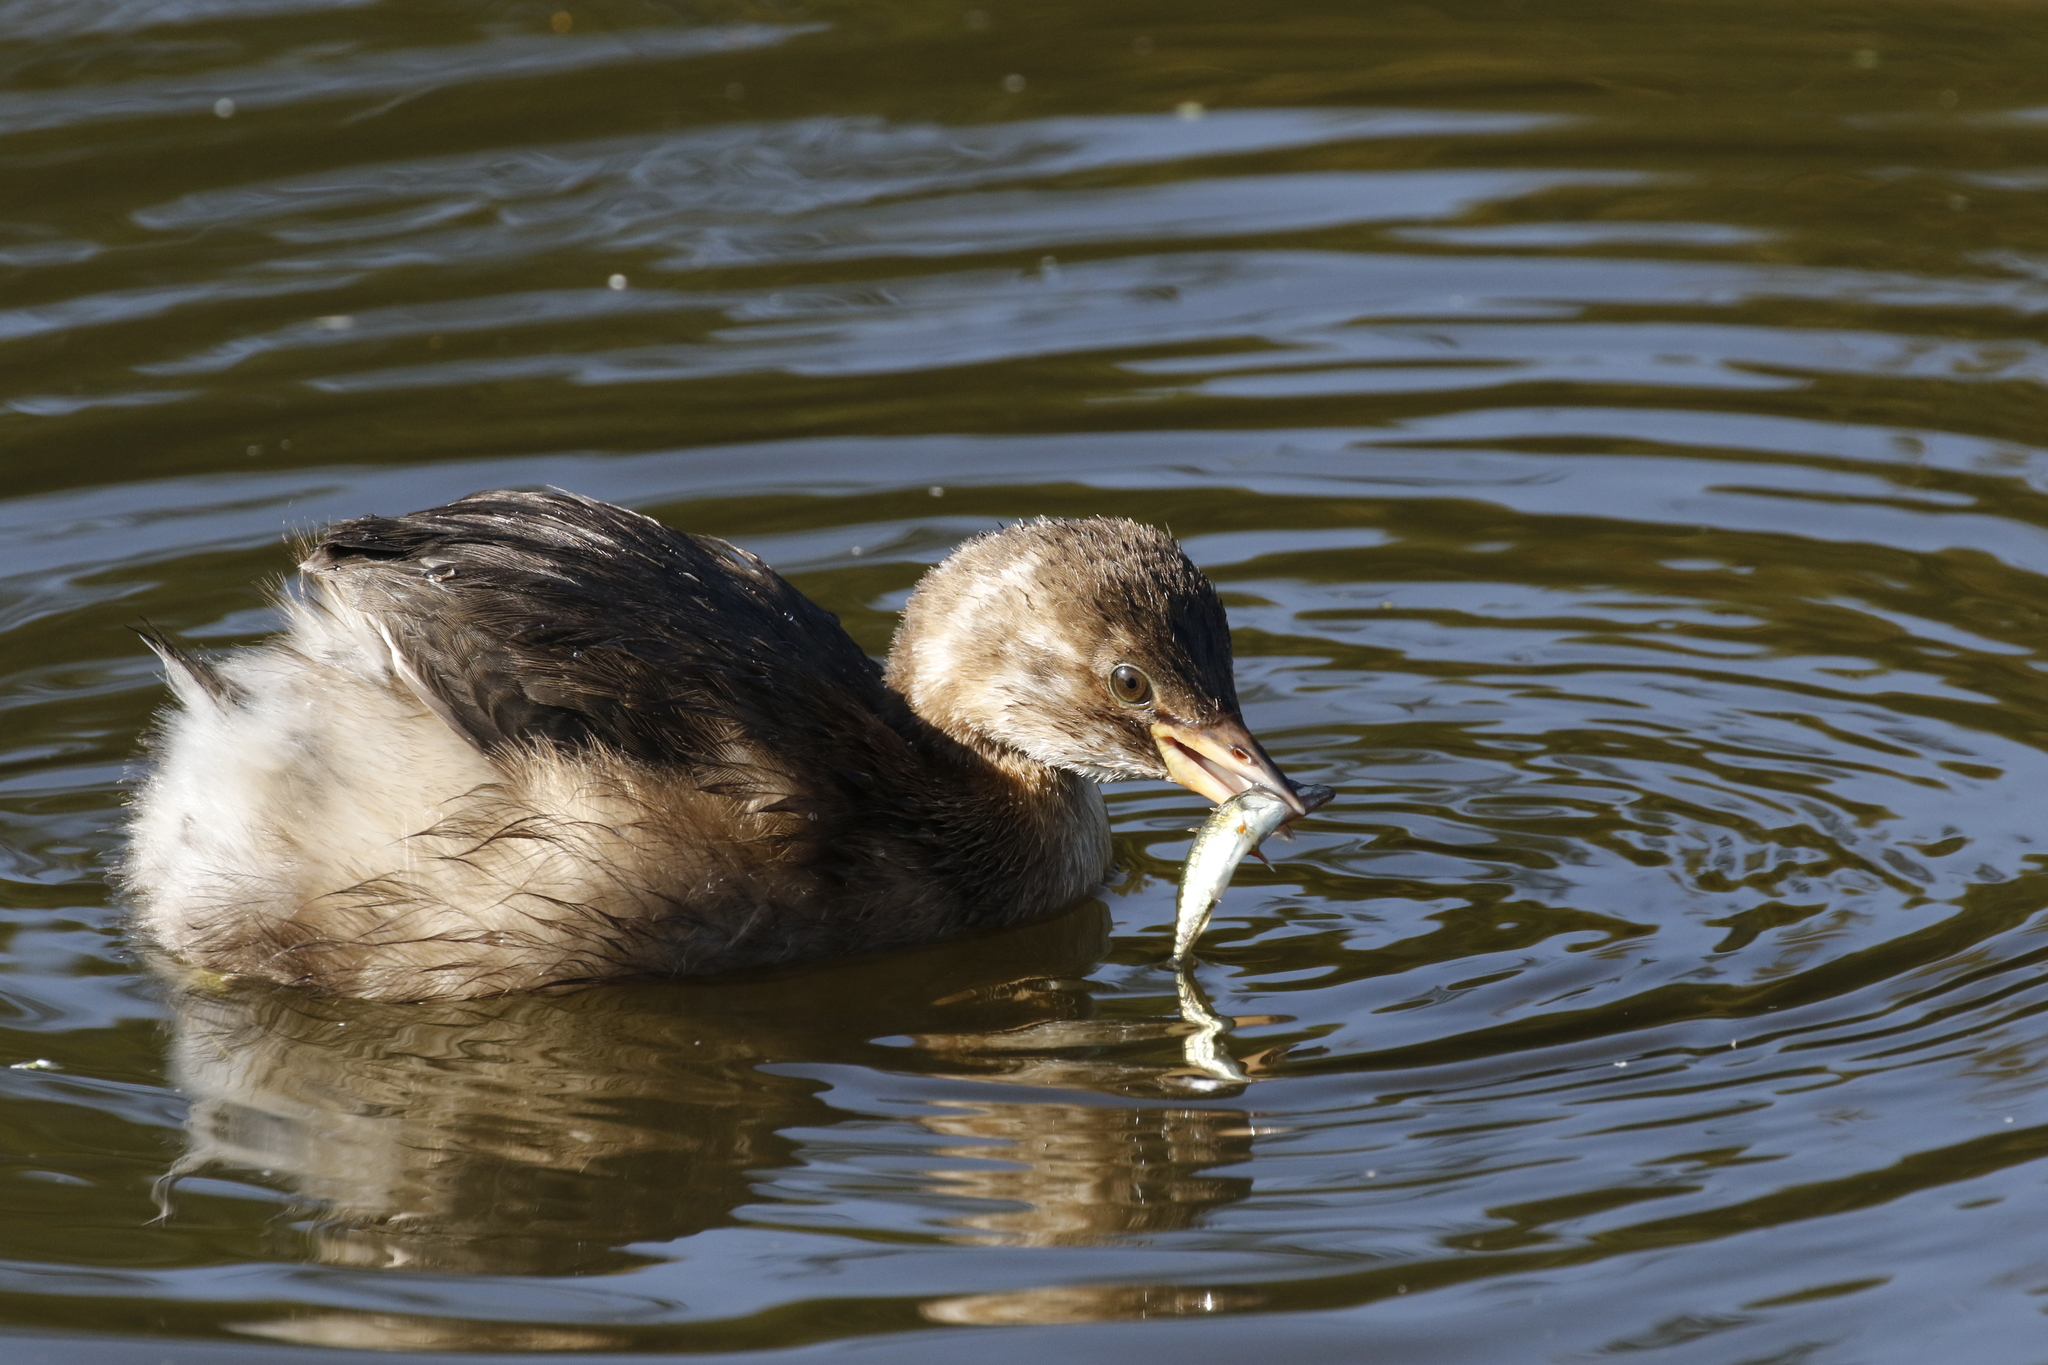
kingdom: Animalia
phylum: Chordata
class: Aves
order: Podicipediformes
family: Podicipedidae
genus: Tachybaptus
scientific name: Tachybaptus ruficollis
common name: Little grebe
